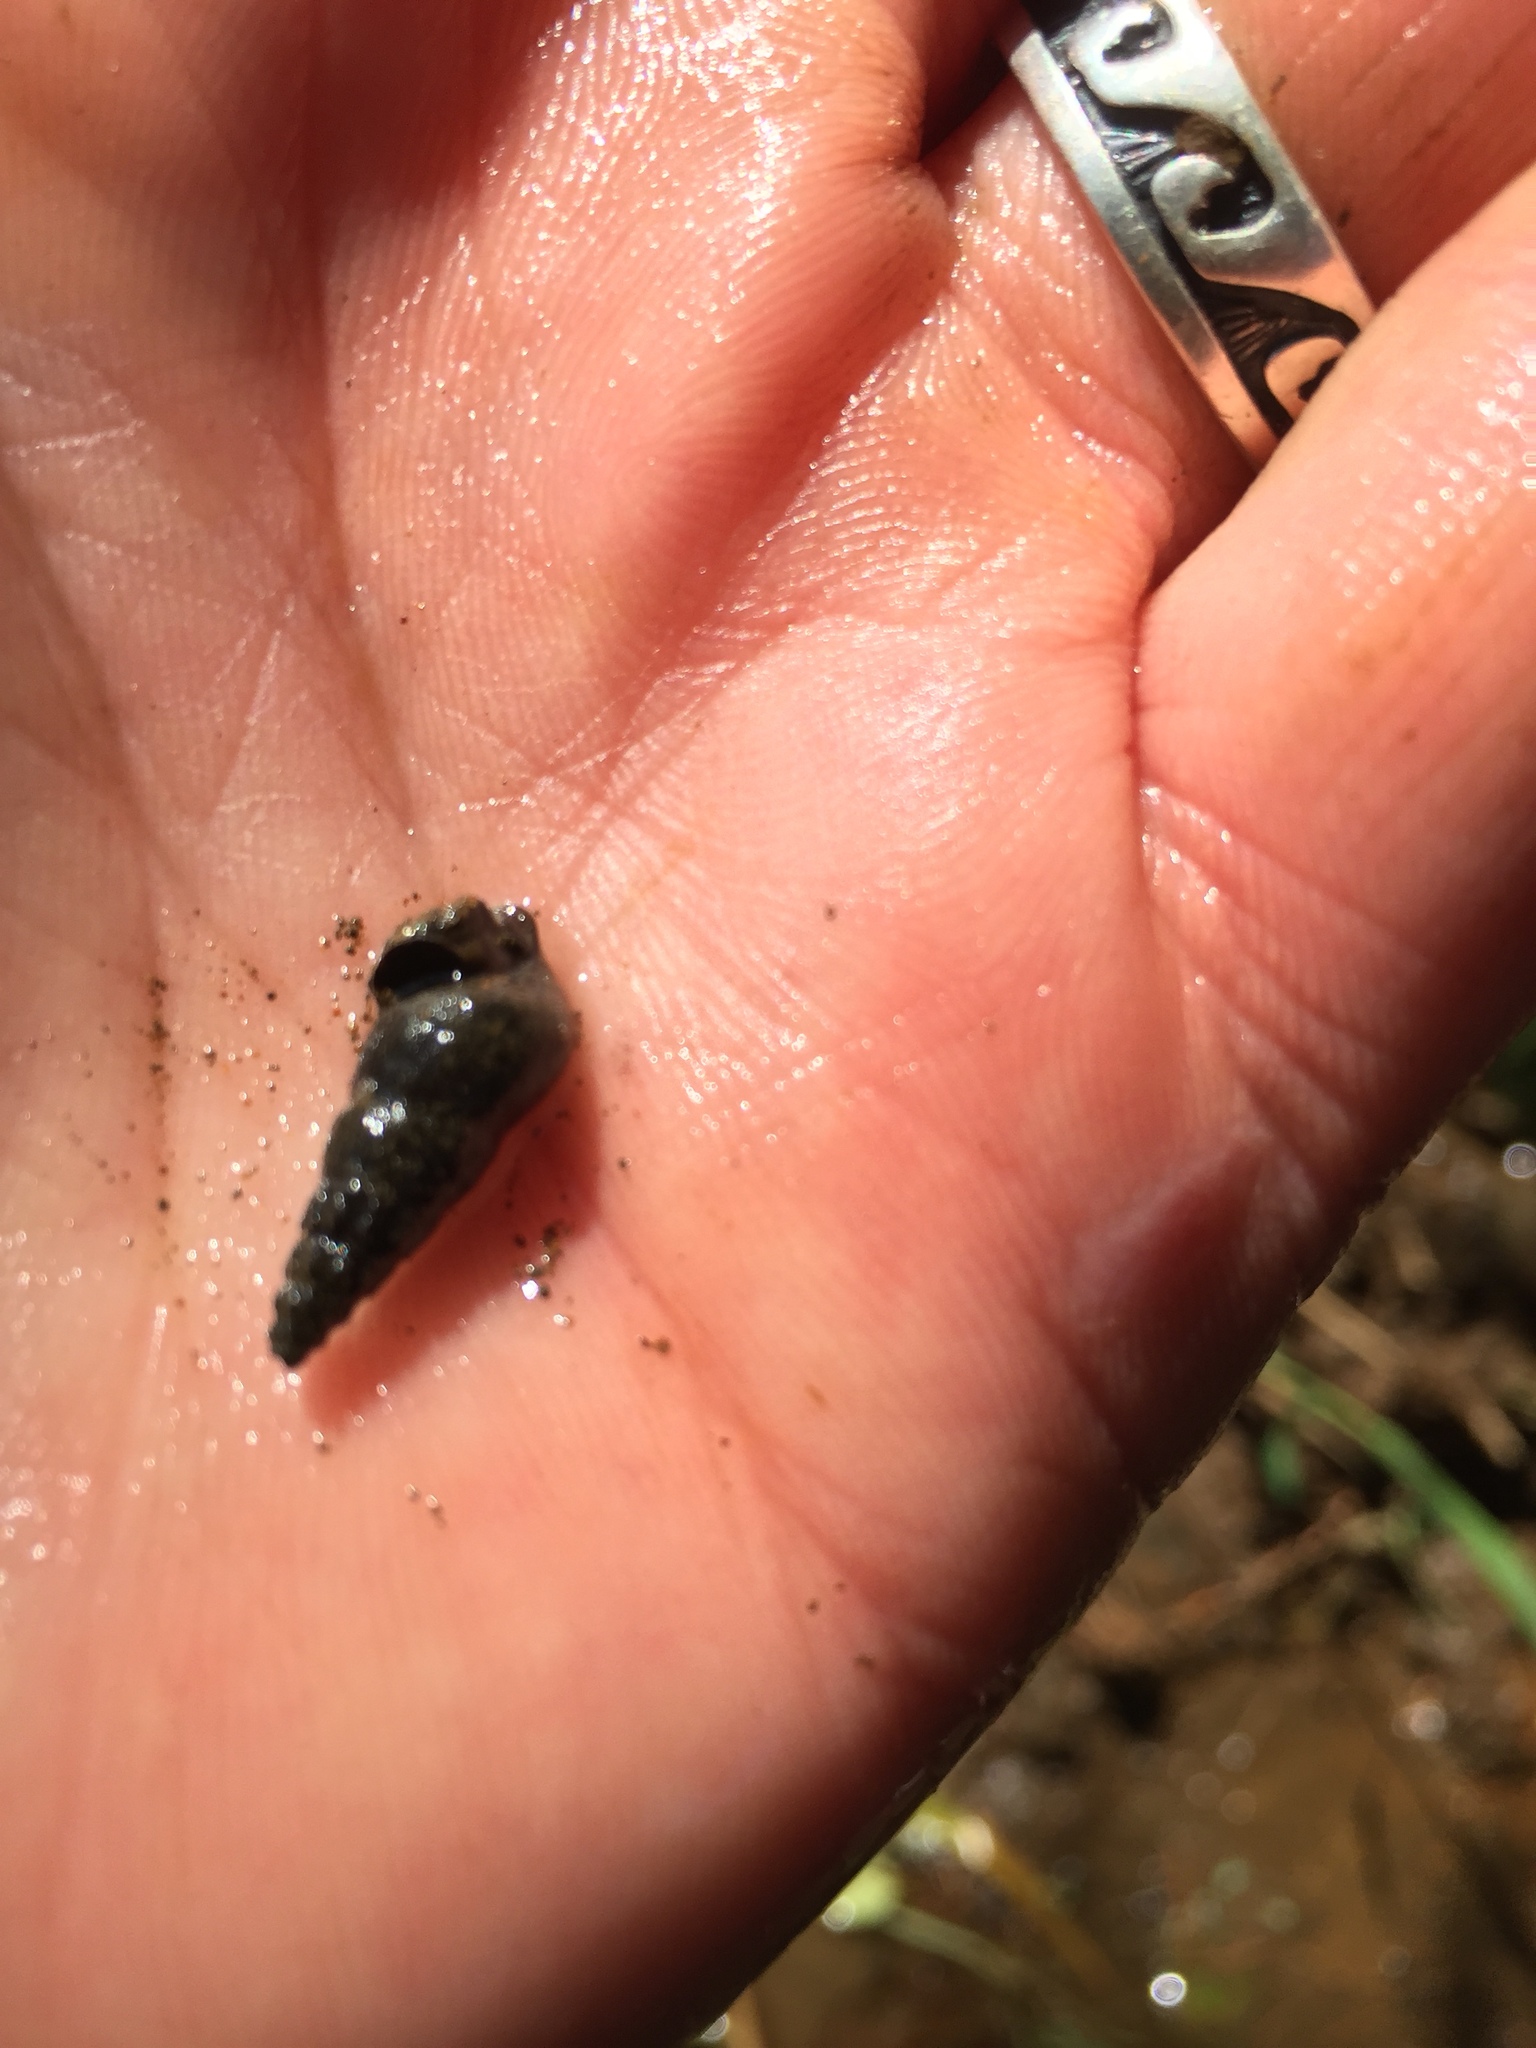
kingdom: Animalia
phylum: Mollusca
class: Gastropoda
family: Semisulcospiridae
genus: Juga
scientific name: Juga plicifera
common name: Pleated juga
